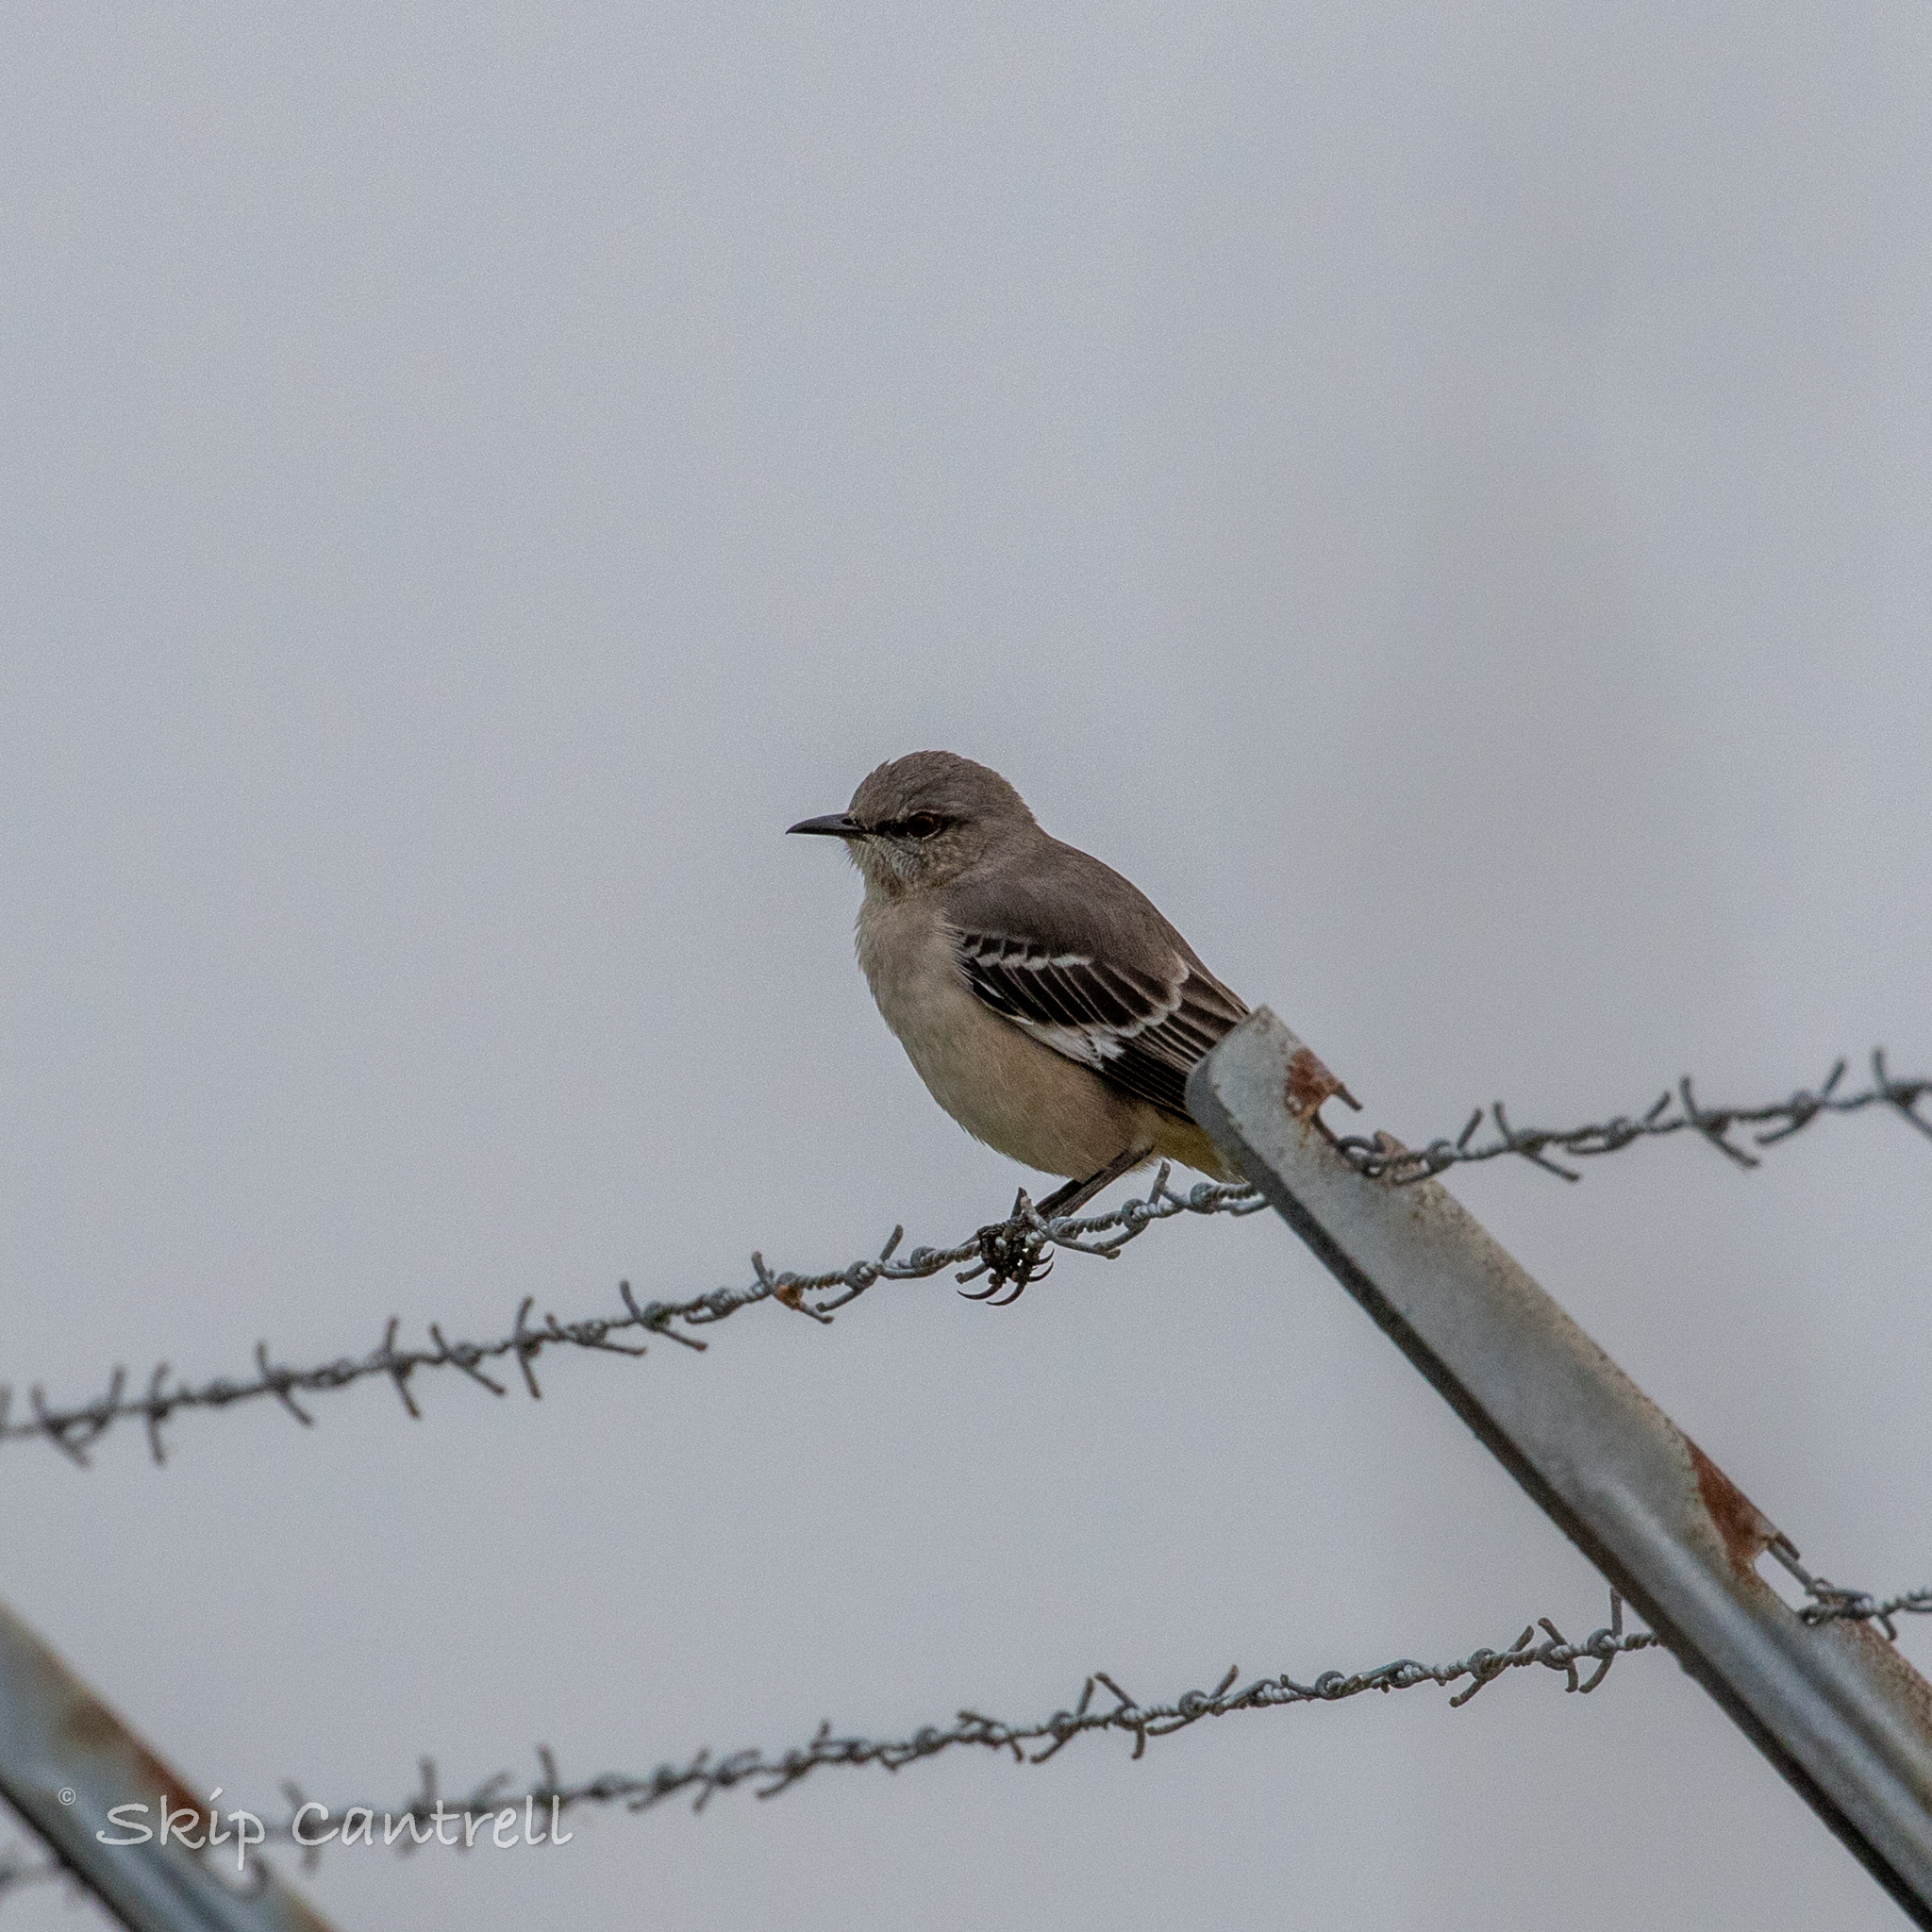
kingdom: Animalia
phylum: Chordata
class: Aves
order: Passeriformes
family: Mimidae
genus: Mimus
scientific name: Mimus polyglottos
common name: Northern mockingbird
